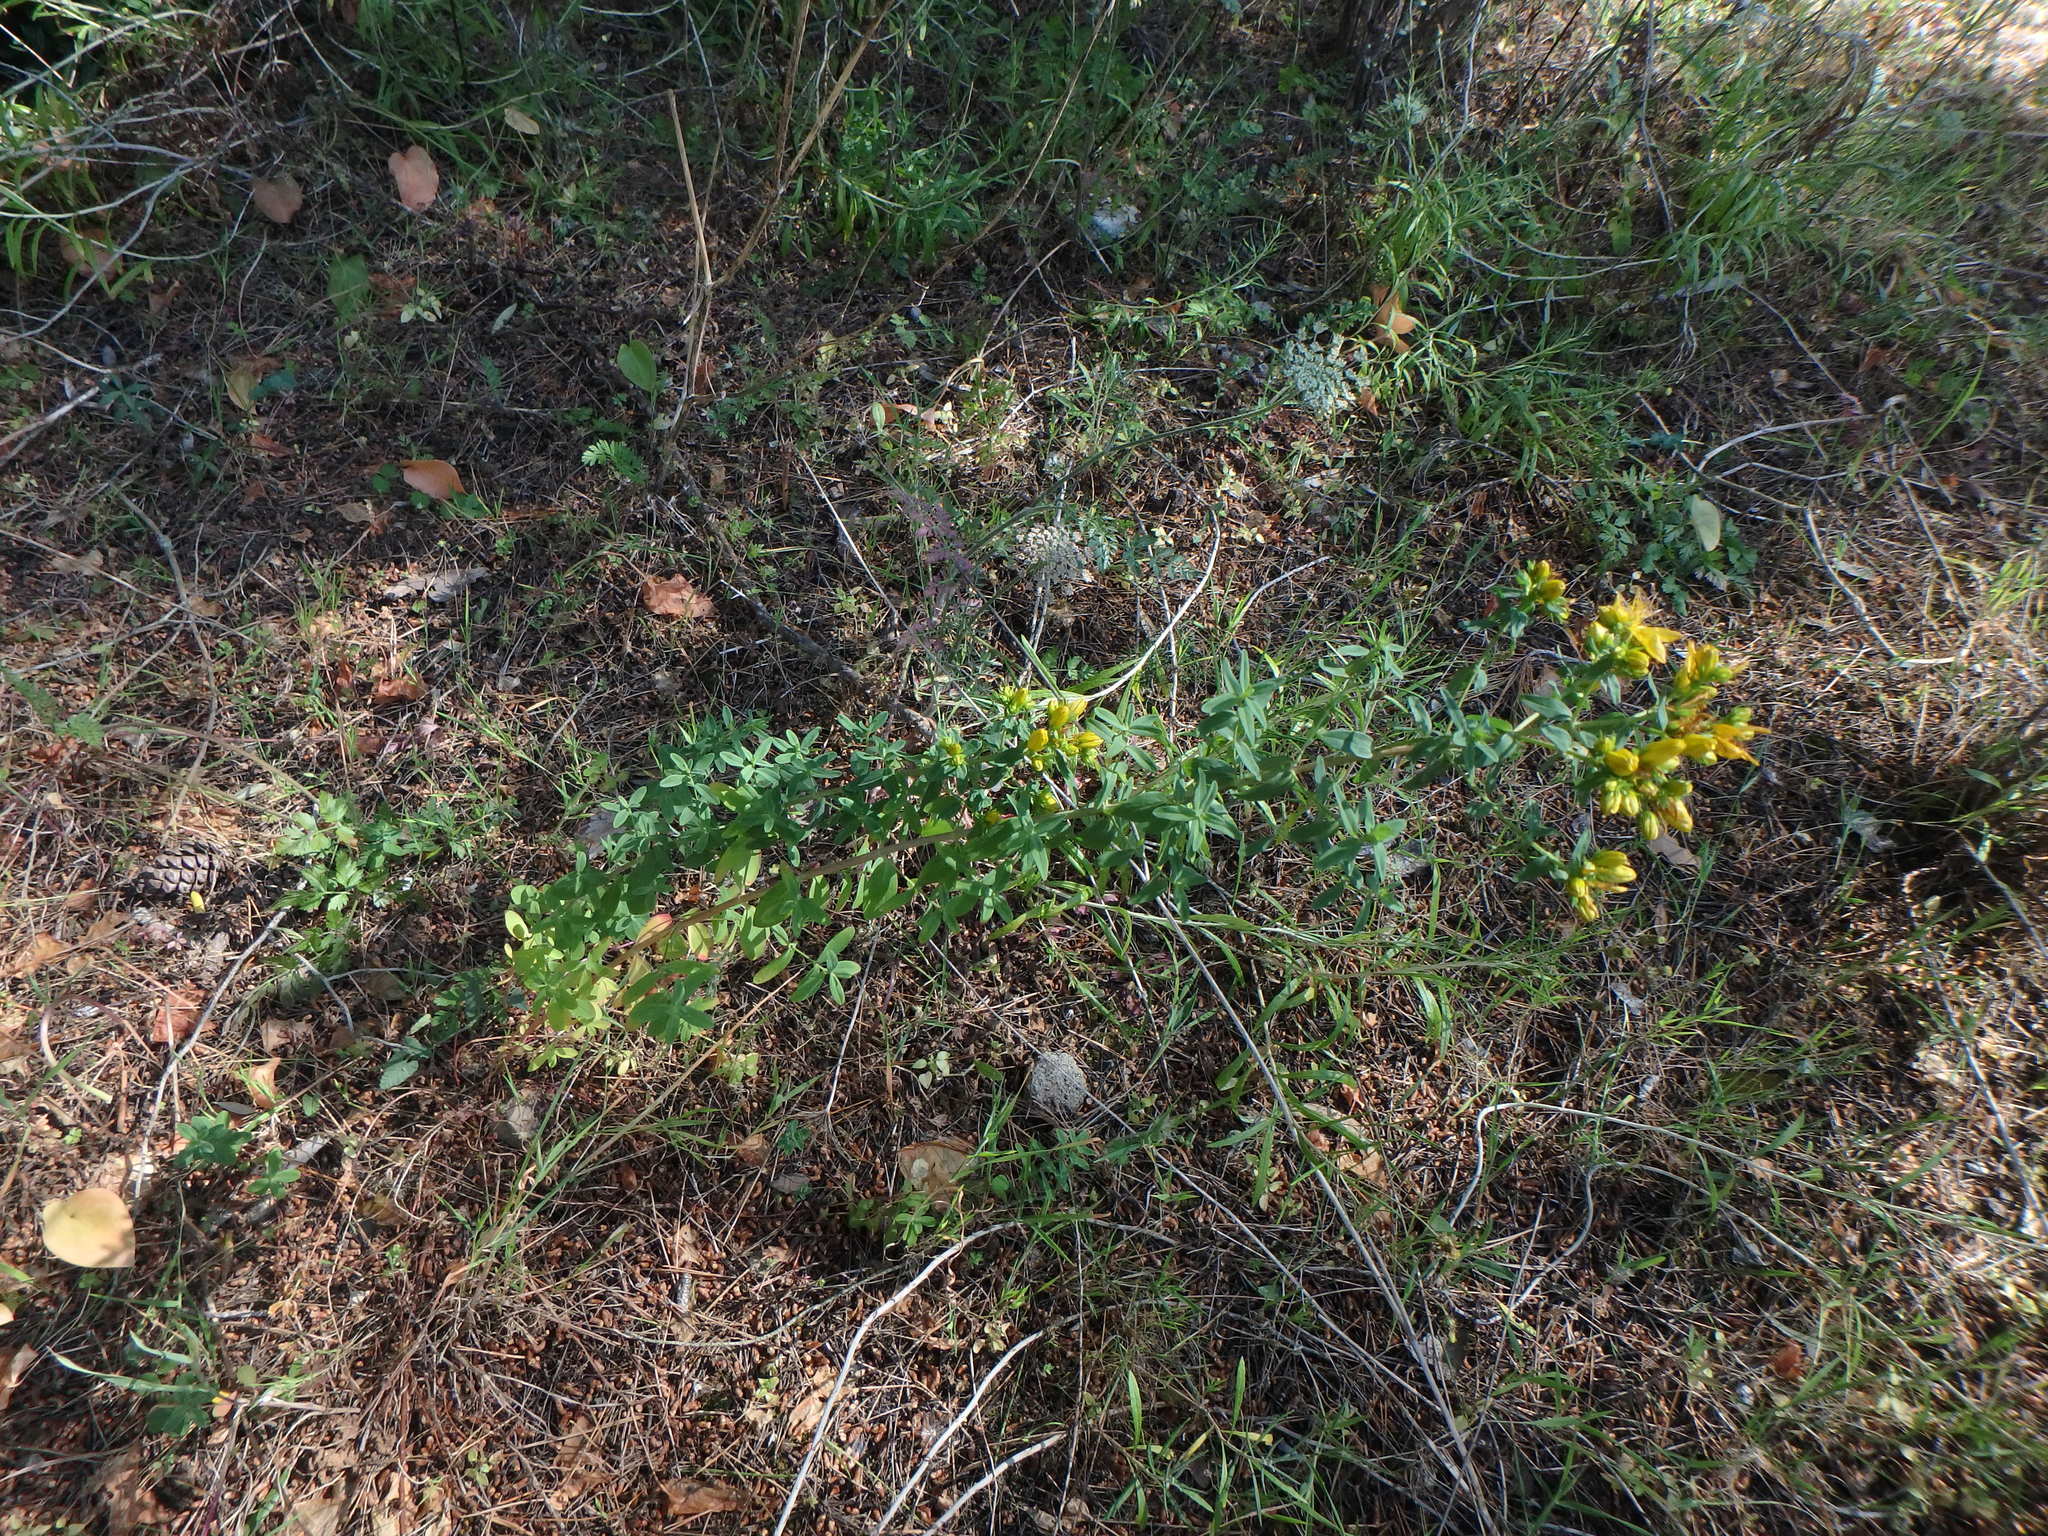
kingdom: Plantae
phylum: Tracheophyta
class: Magnoliopsida
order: Malpighiales
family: Hypericaceae
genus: Hypericum
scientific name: Hypericum perforatum
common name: Common st. johnswort
